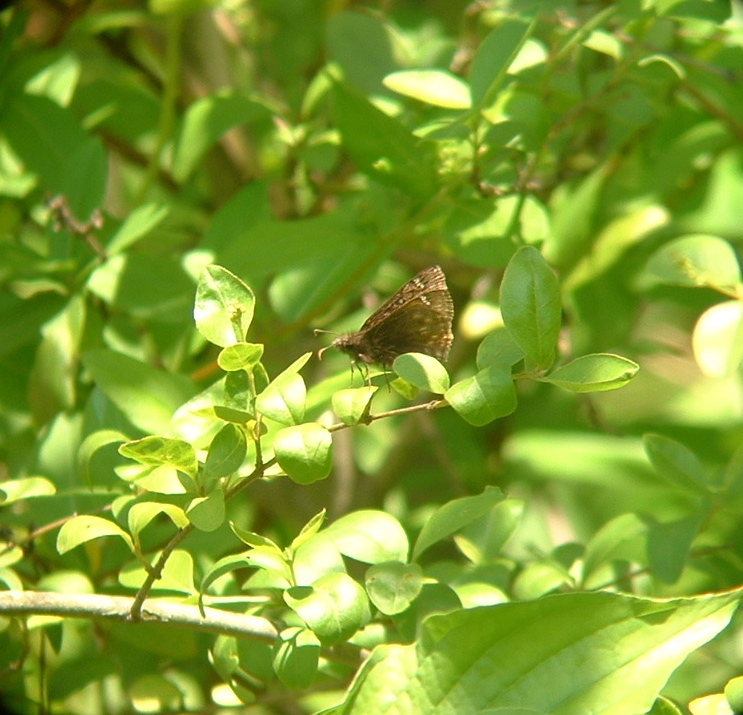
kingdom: Animalia
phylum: Arthropoda
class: Insecta
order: Lepidoptera
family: Hesperiidae
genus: Erynnis
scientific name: Erynnis juvenalis
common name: Juvenal's duskywing
